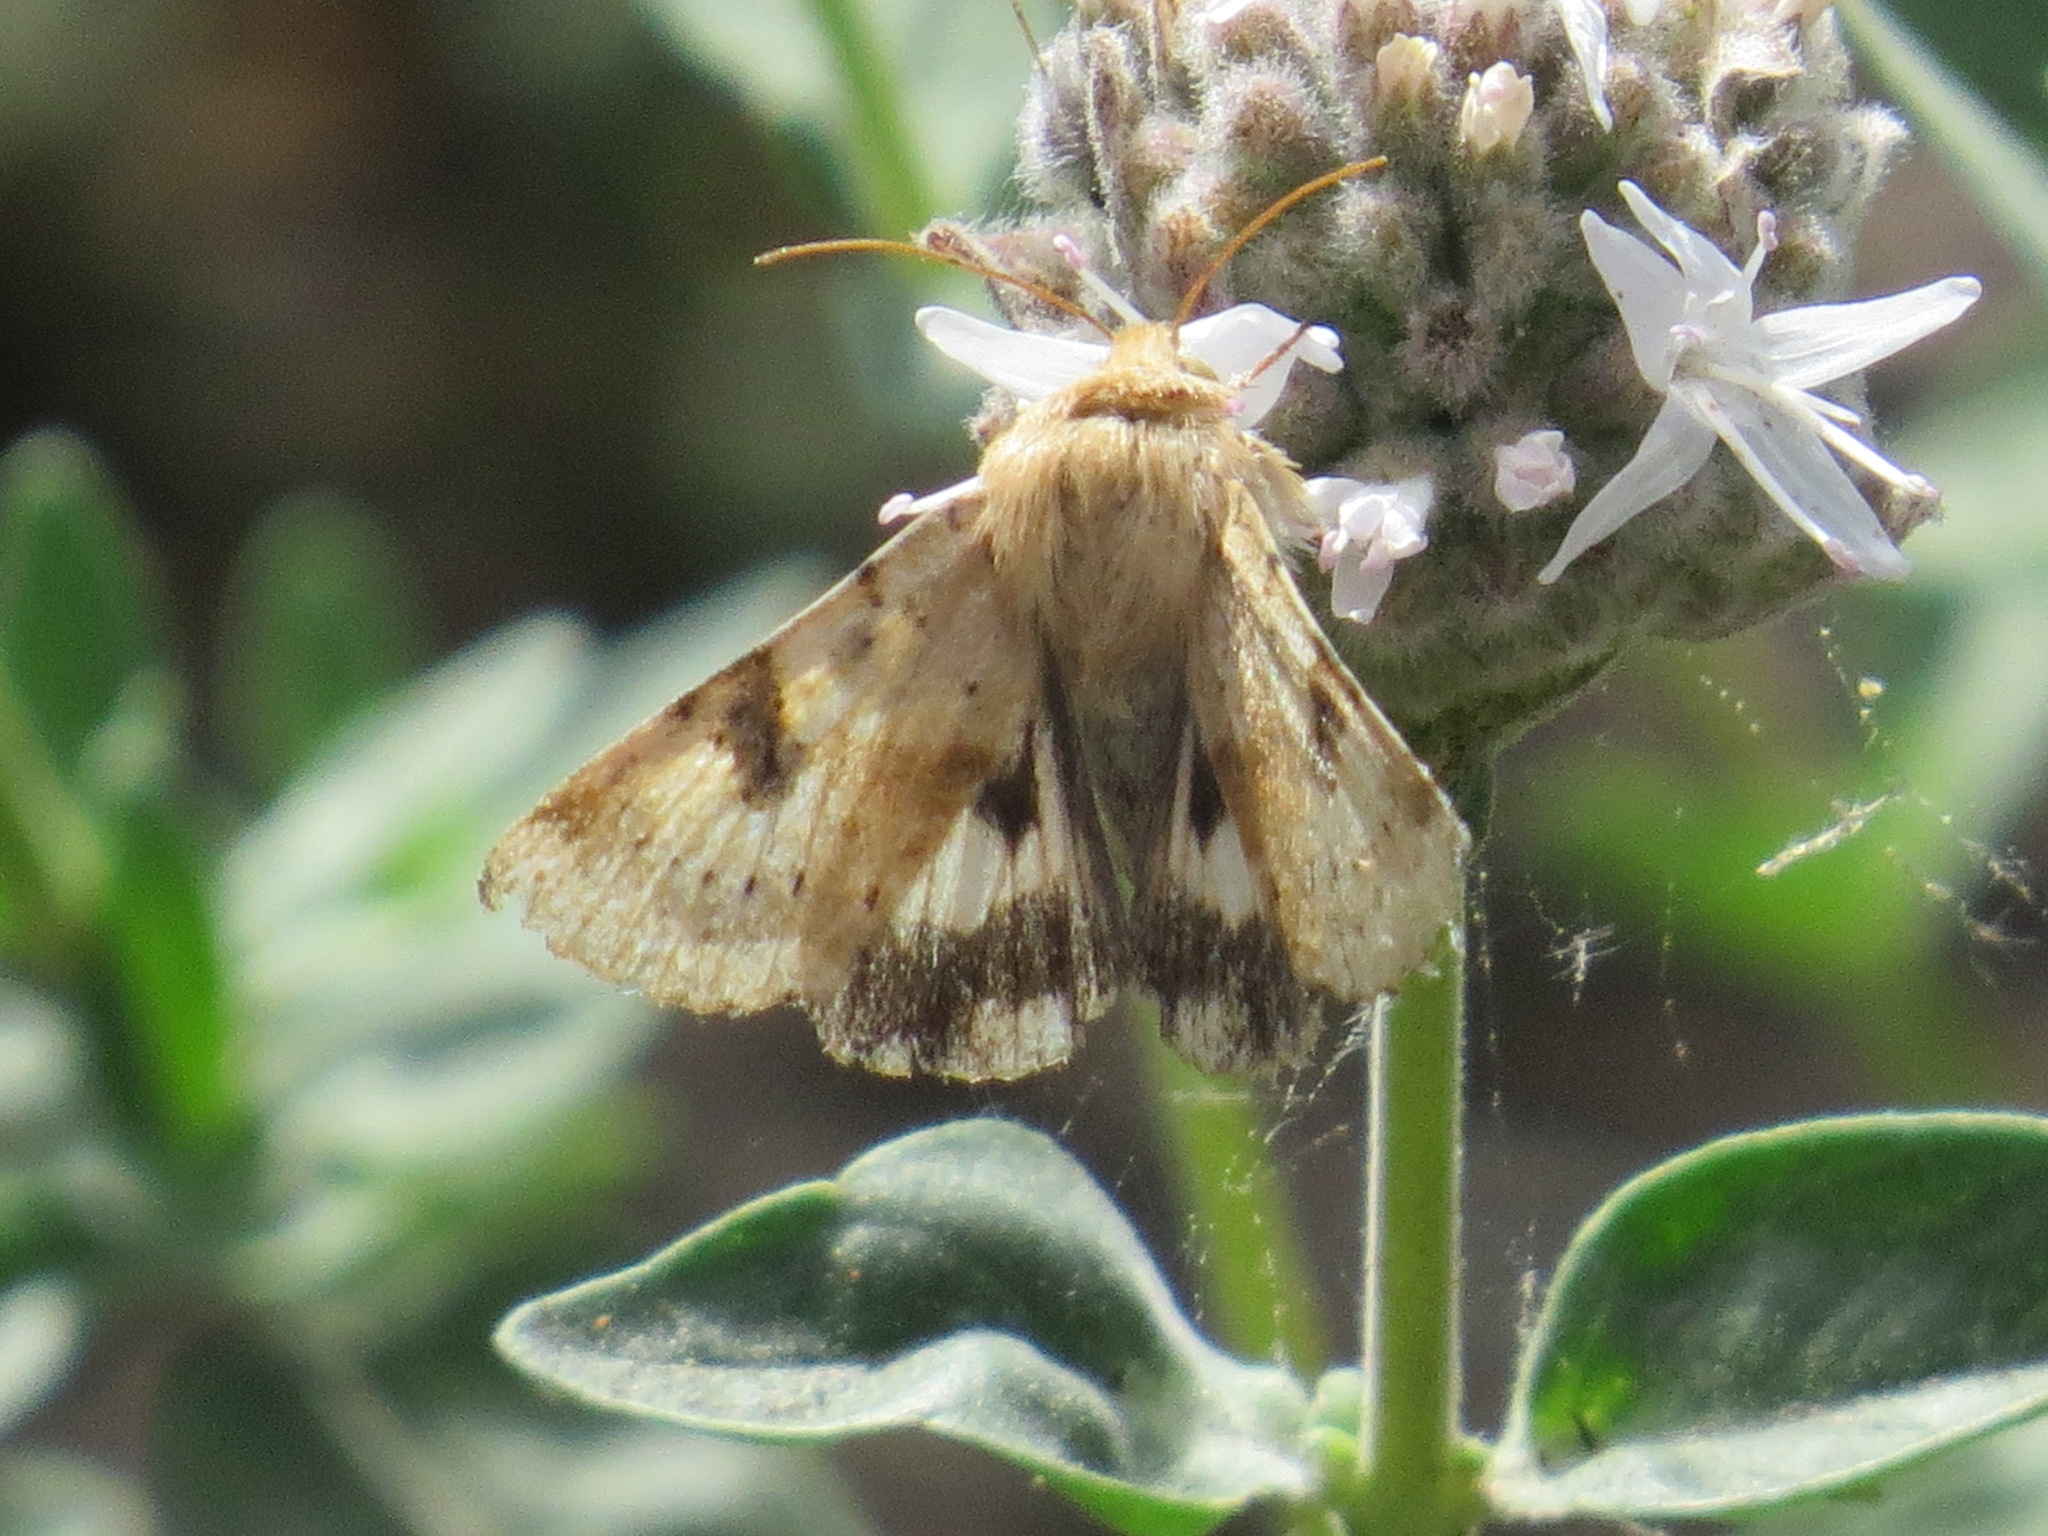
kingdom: Animalia
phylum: Arthropoda
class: Insecta
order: Lepidoptera
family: Noctuidae
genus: Heliothis
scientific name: Heliothis phloxiphaga
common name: Darker spotted straw moth
